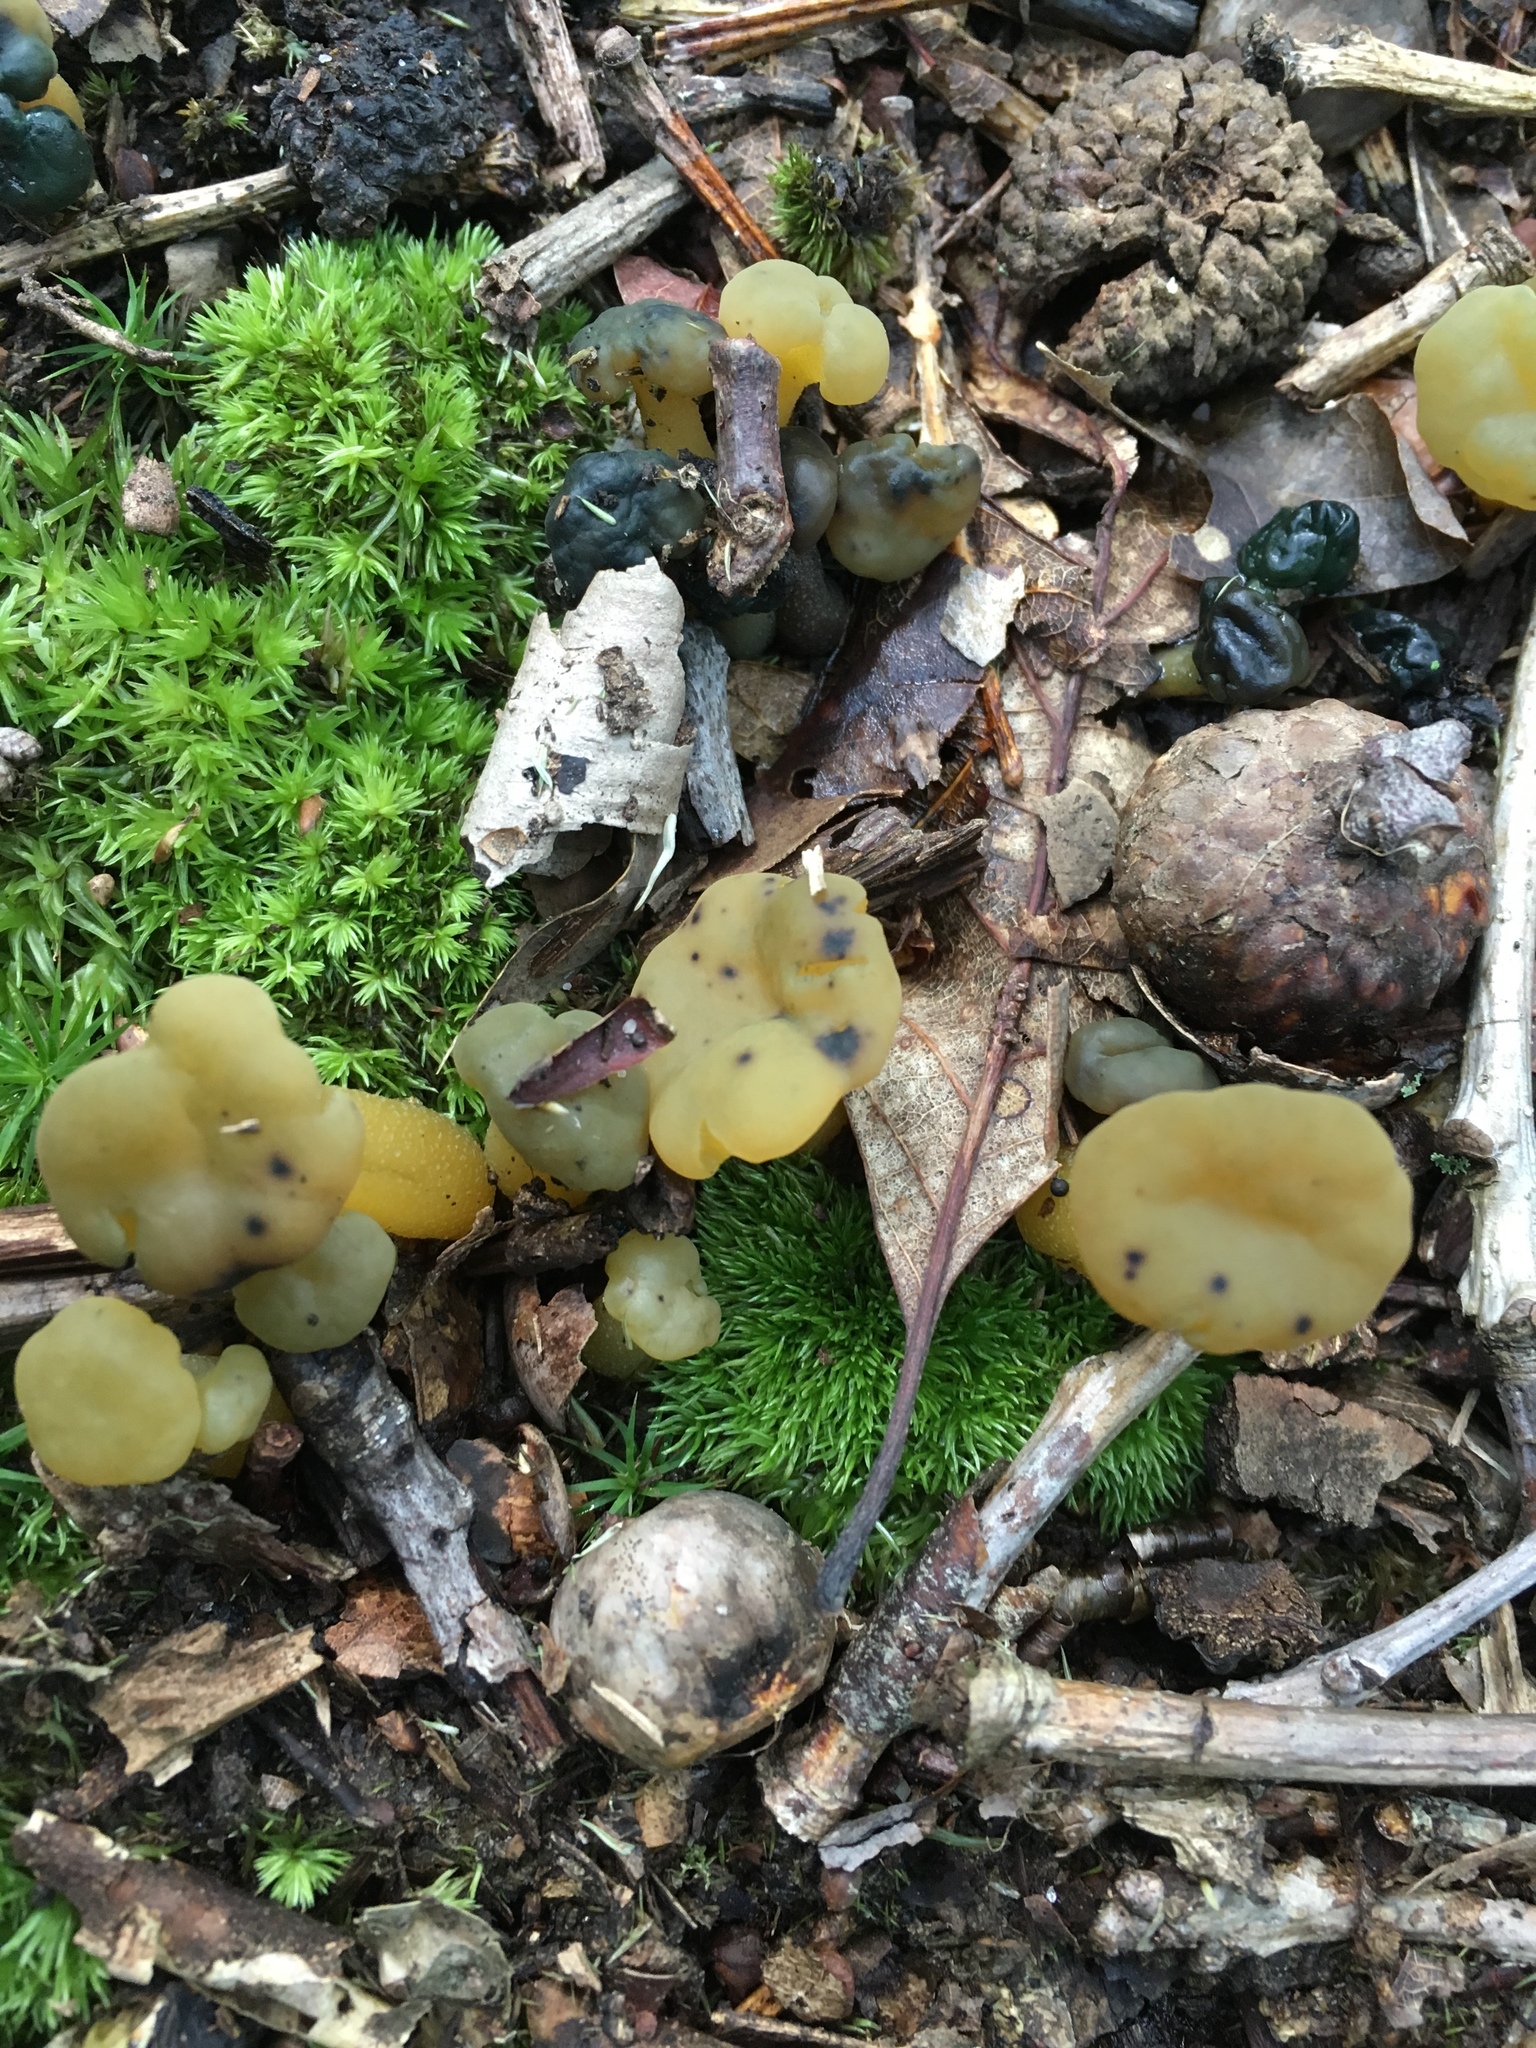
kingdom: Fungi
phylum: Ascomycota
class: Leotiomycetes
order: Leotiales
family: Leotiaceae
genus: Leotia
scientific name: Leotia lubrica
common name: Jellybaby
